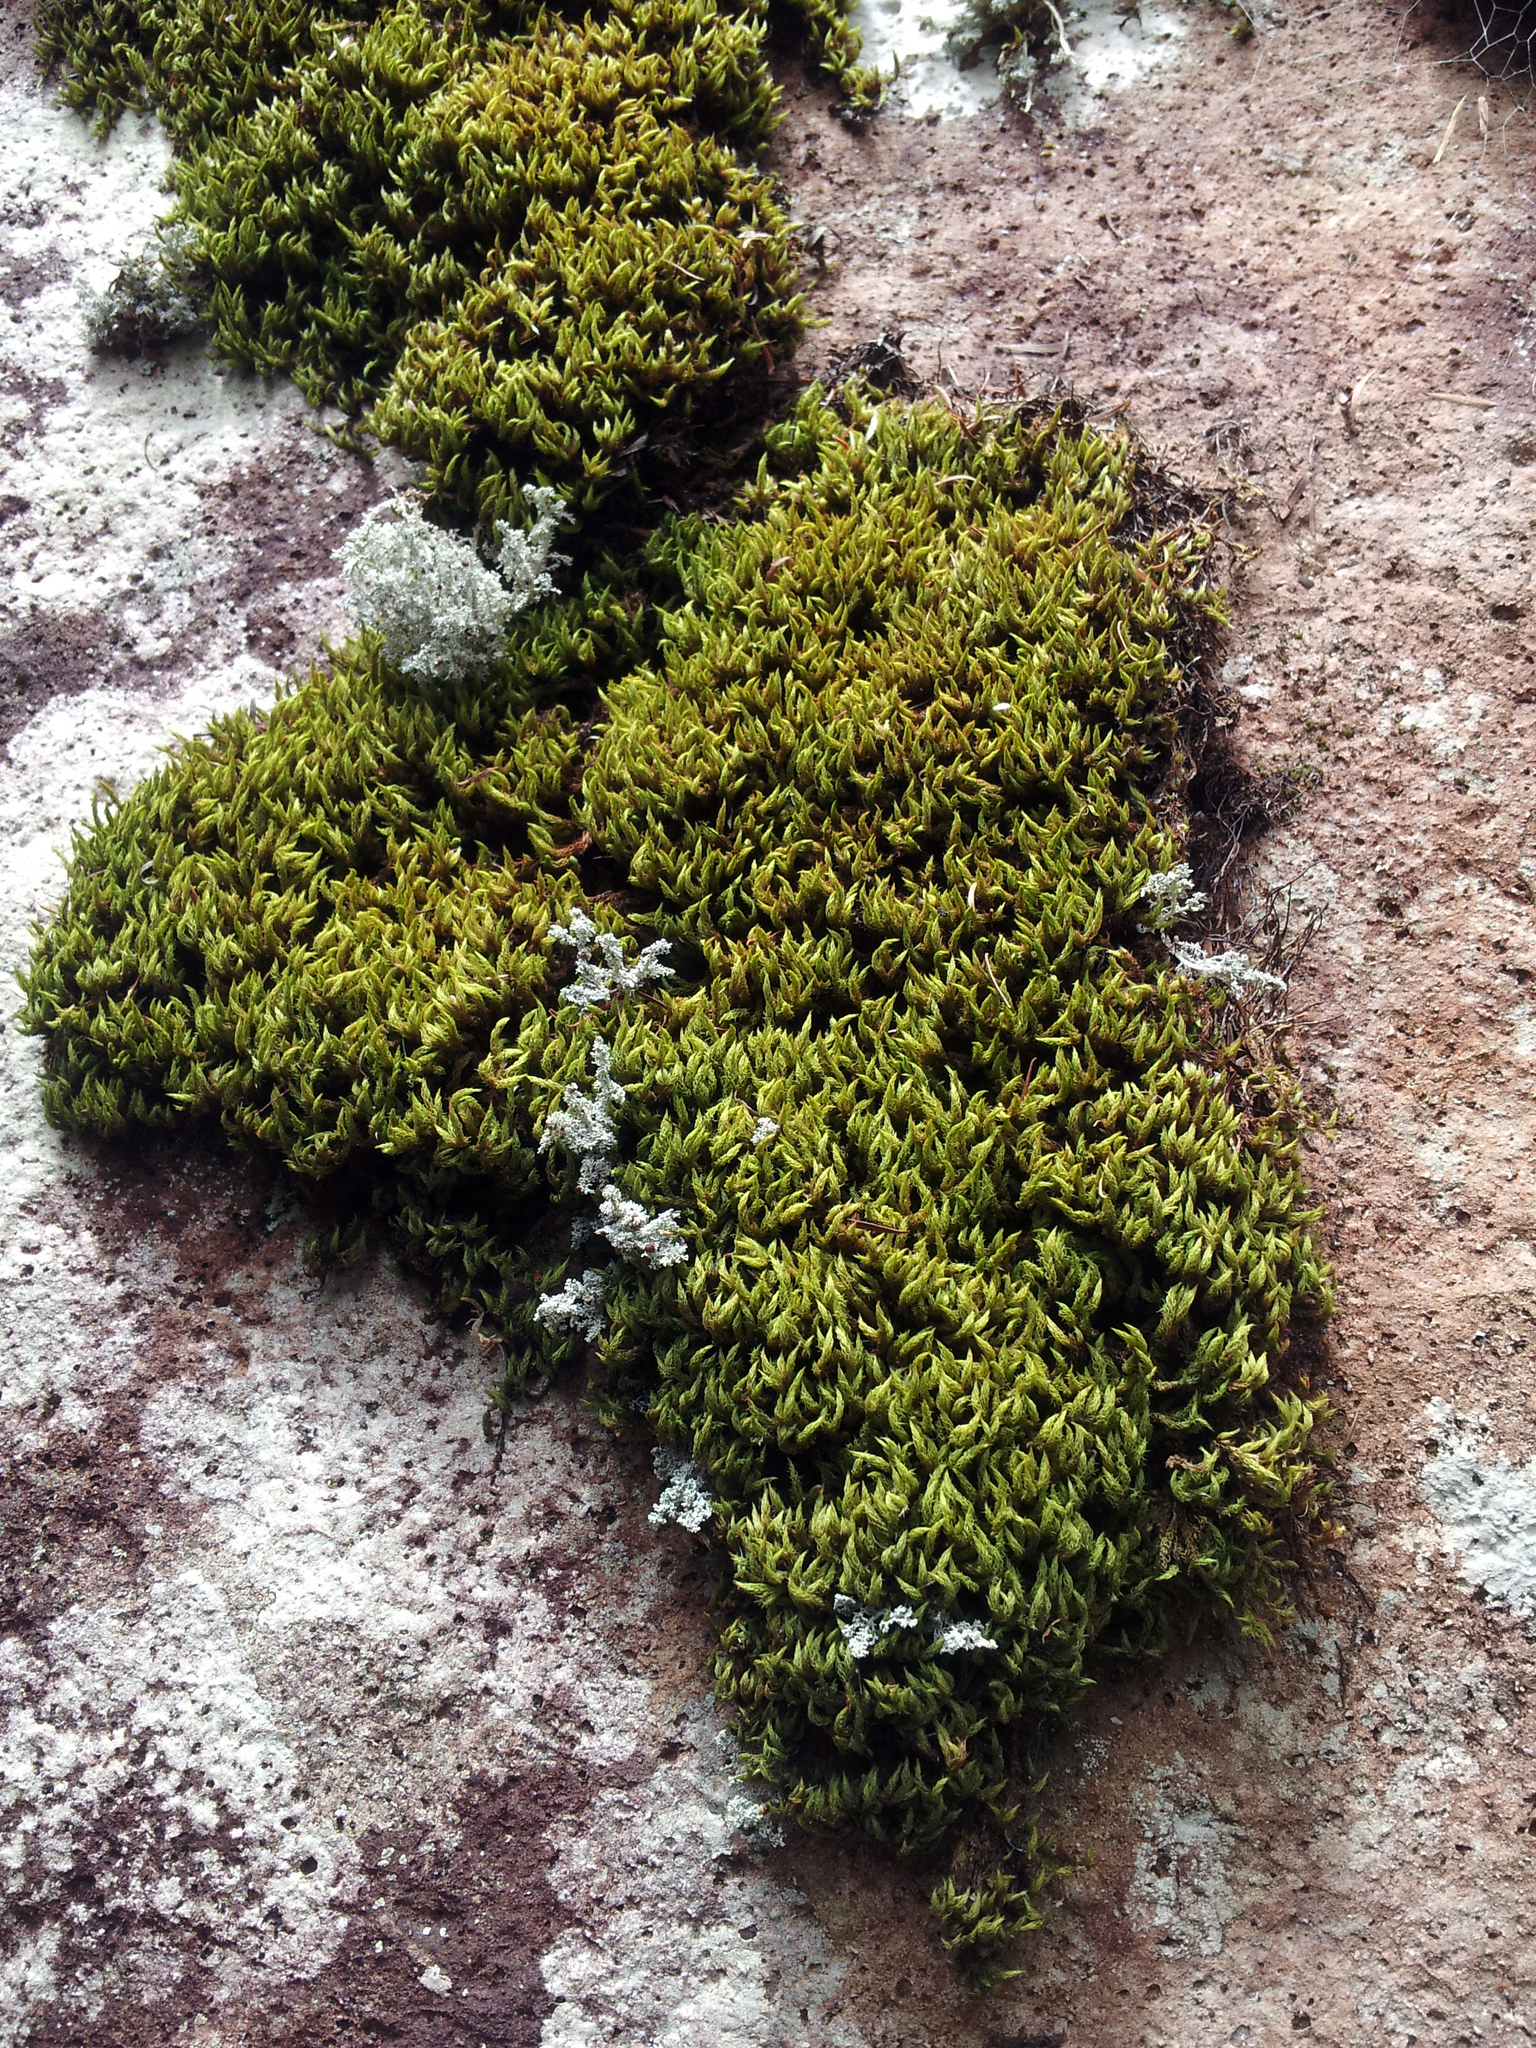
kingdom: Plantae
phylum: Bryophyta
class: Bryopsida
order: Dicranales
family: Dicranaceae
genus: Sclerodontium
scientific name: Sclerodontium pallidum
